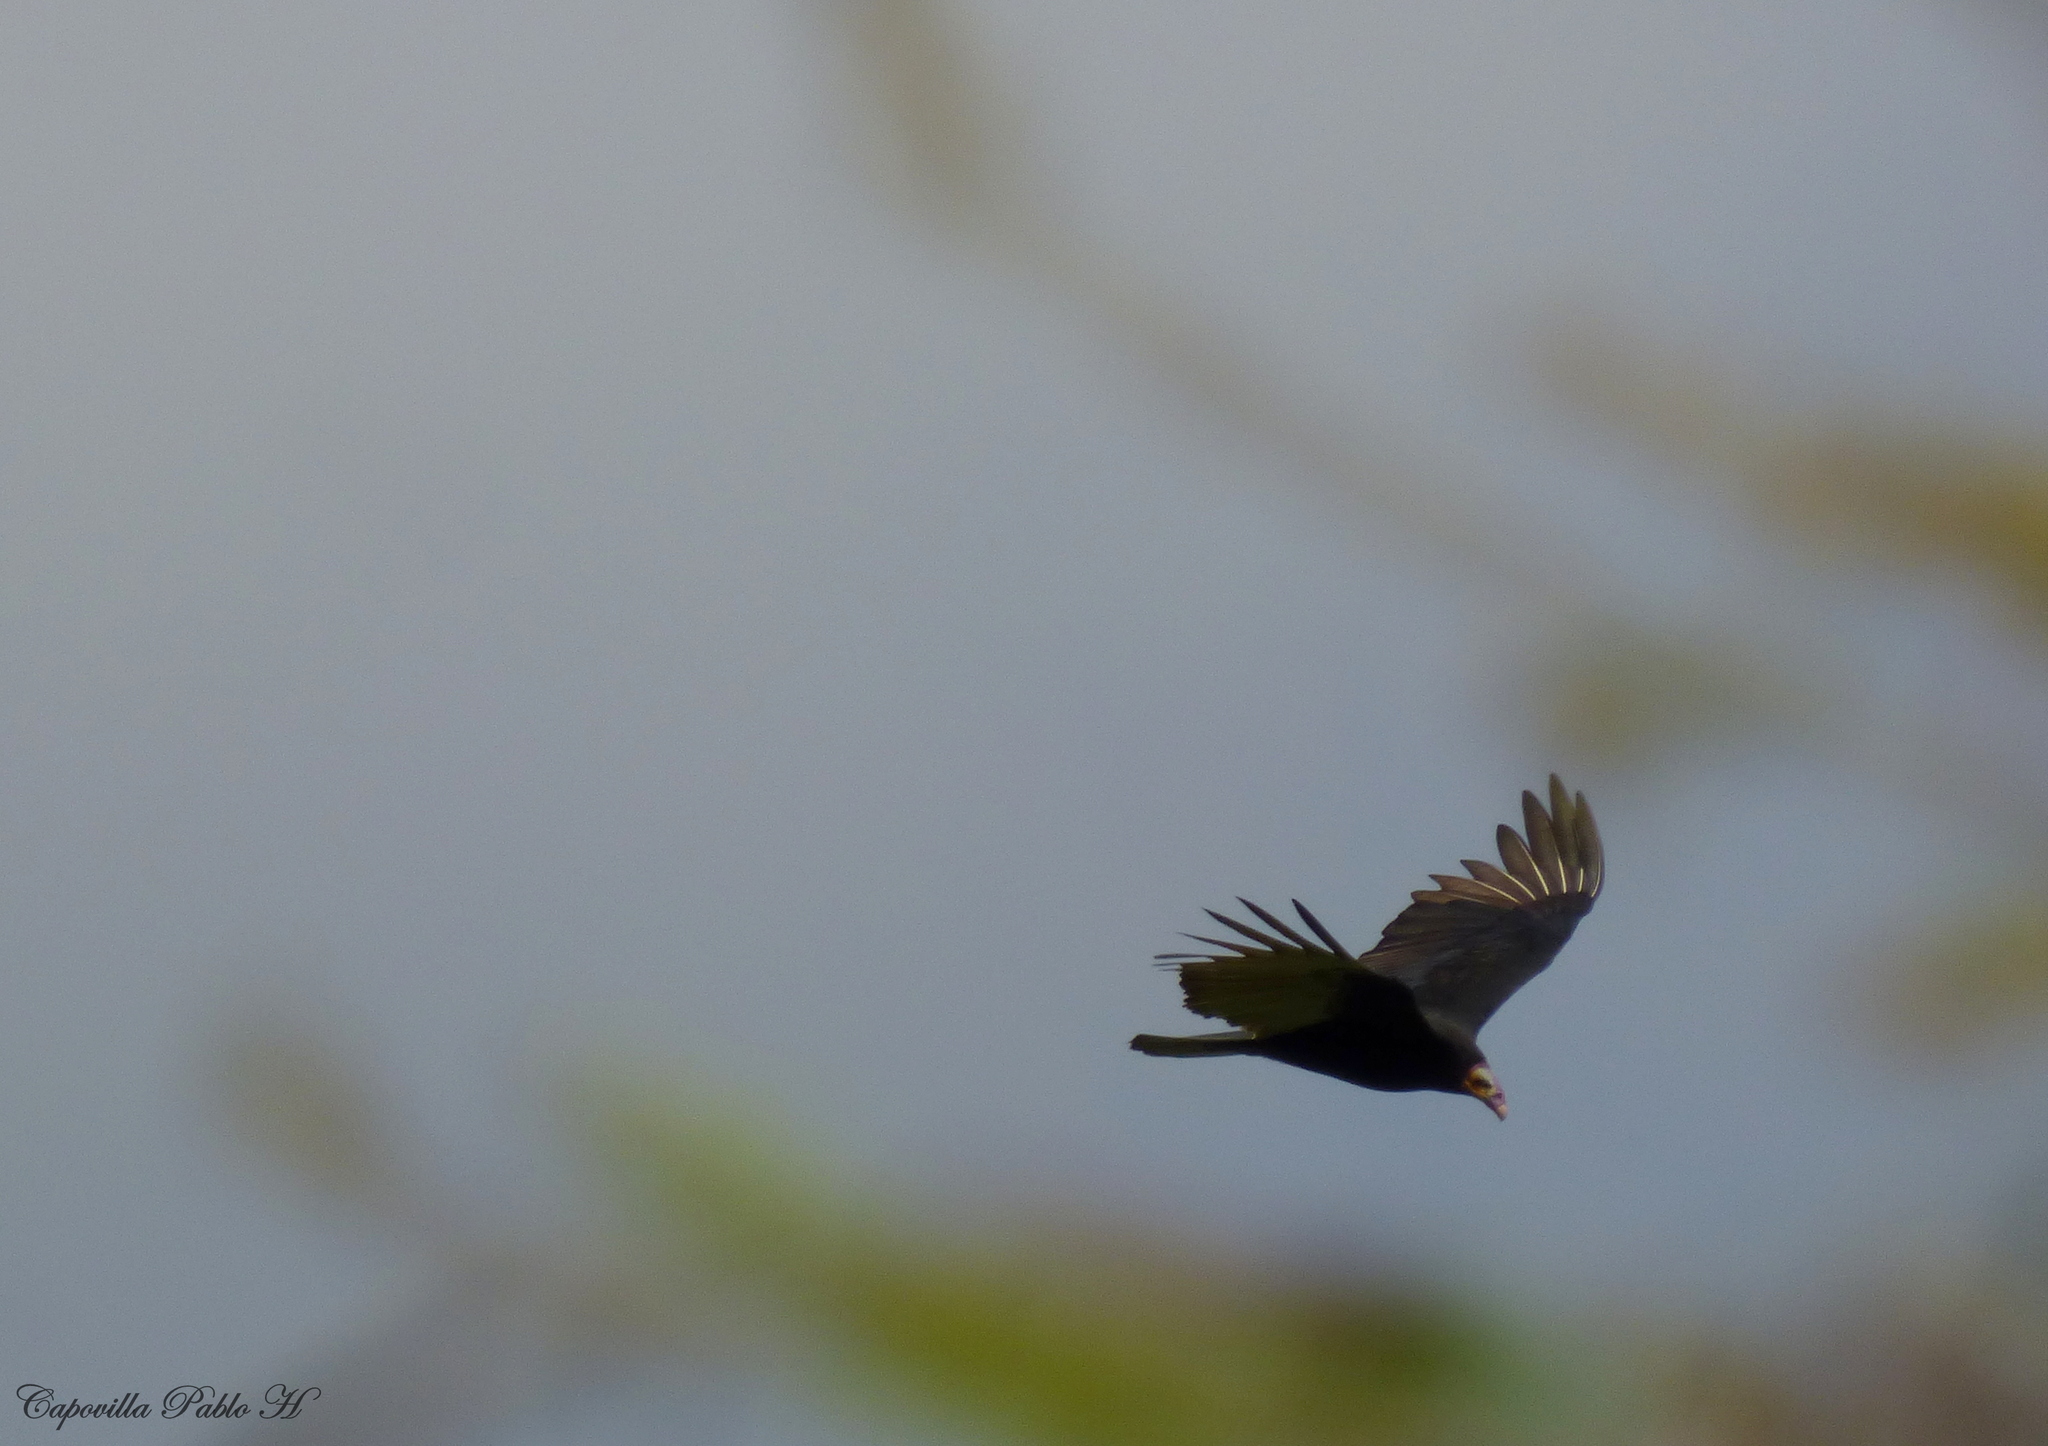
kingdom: Animalia
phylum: Chordata
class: Aves
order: Accipitriformes
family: Cathartidae
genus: Cathartes
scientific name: Cathartes burrovianus
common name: Lesser yellow-headed vulture
